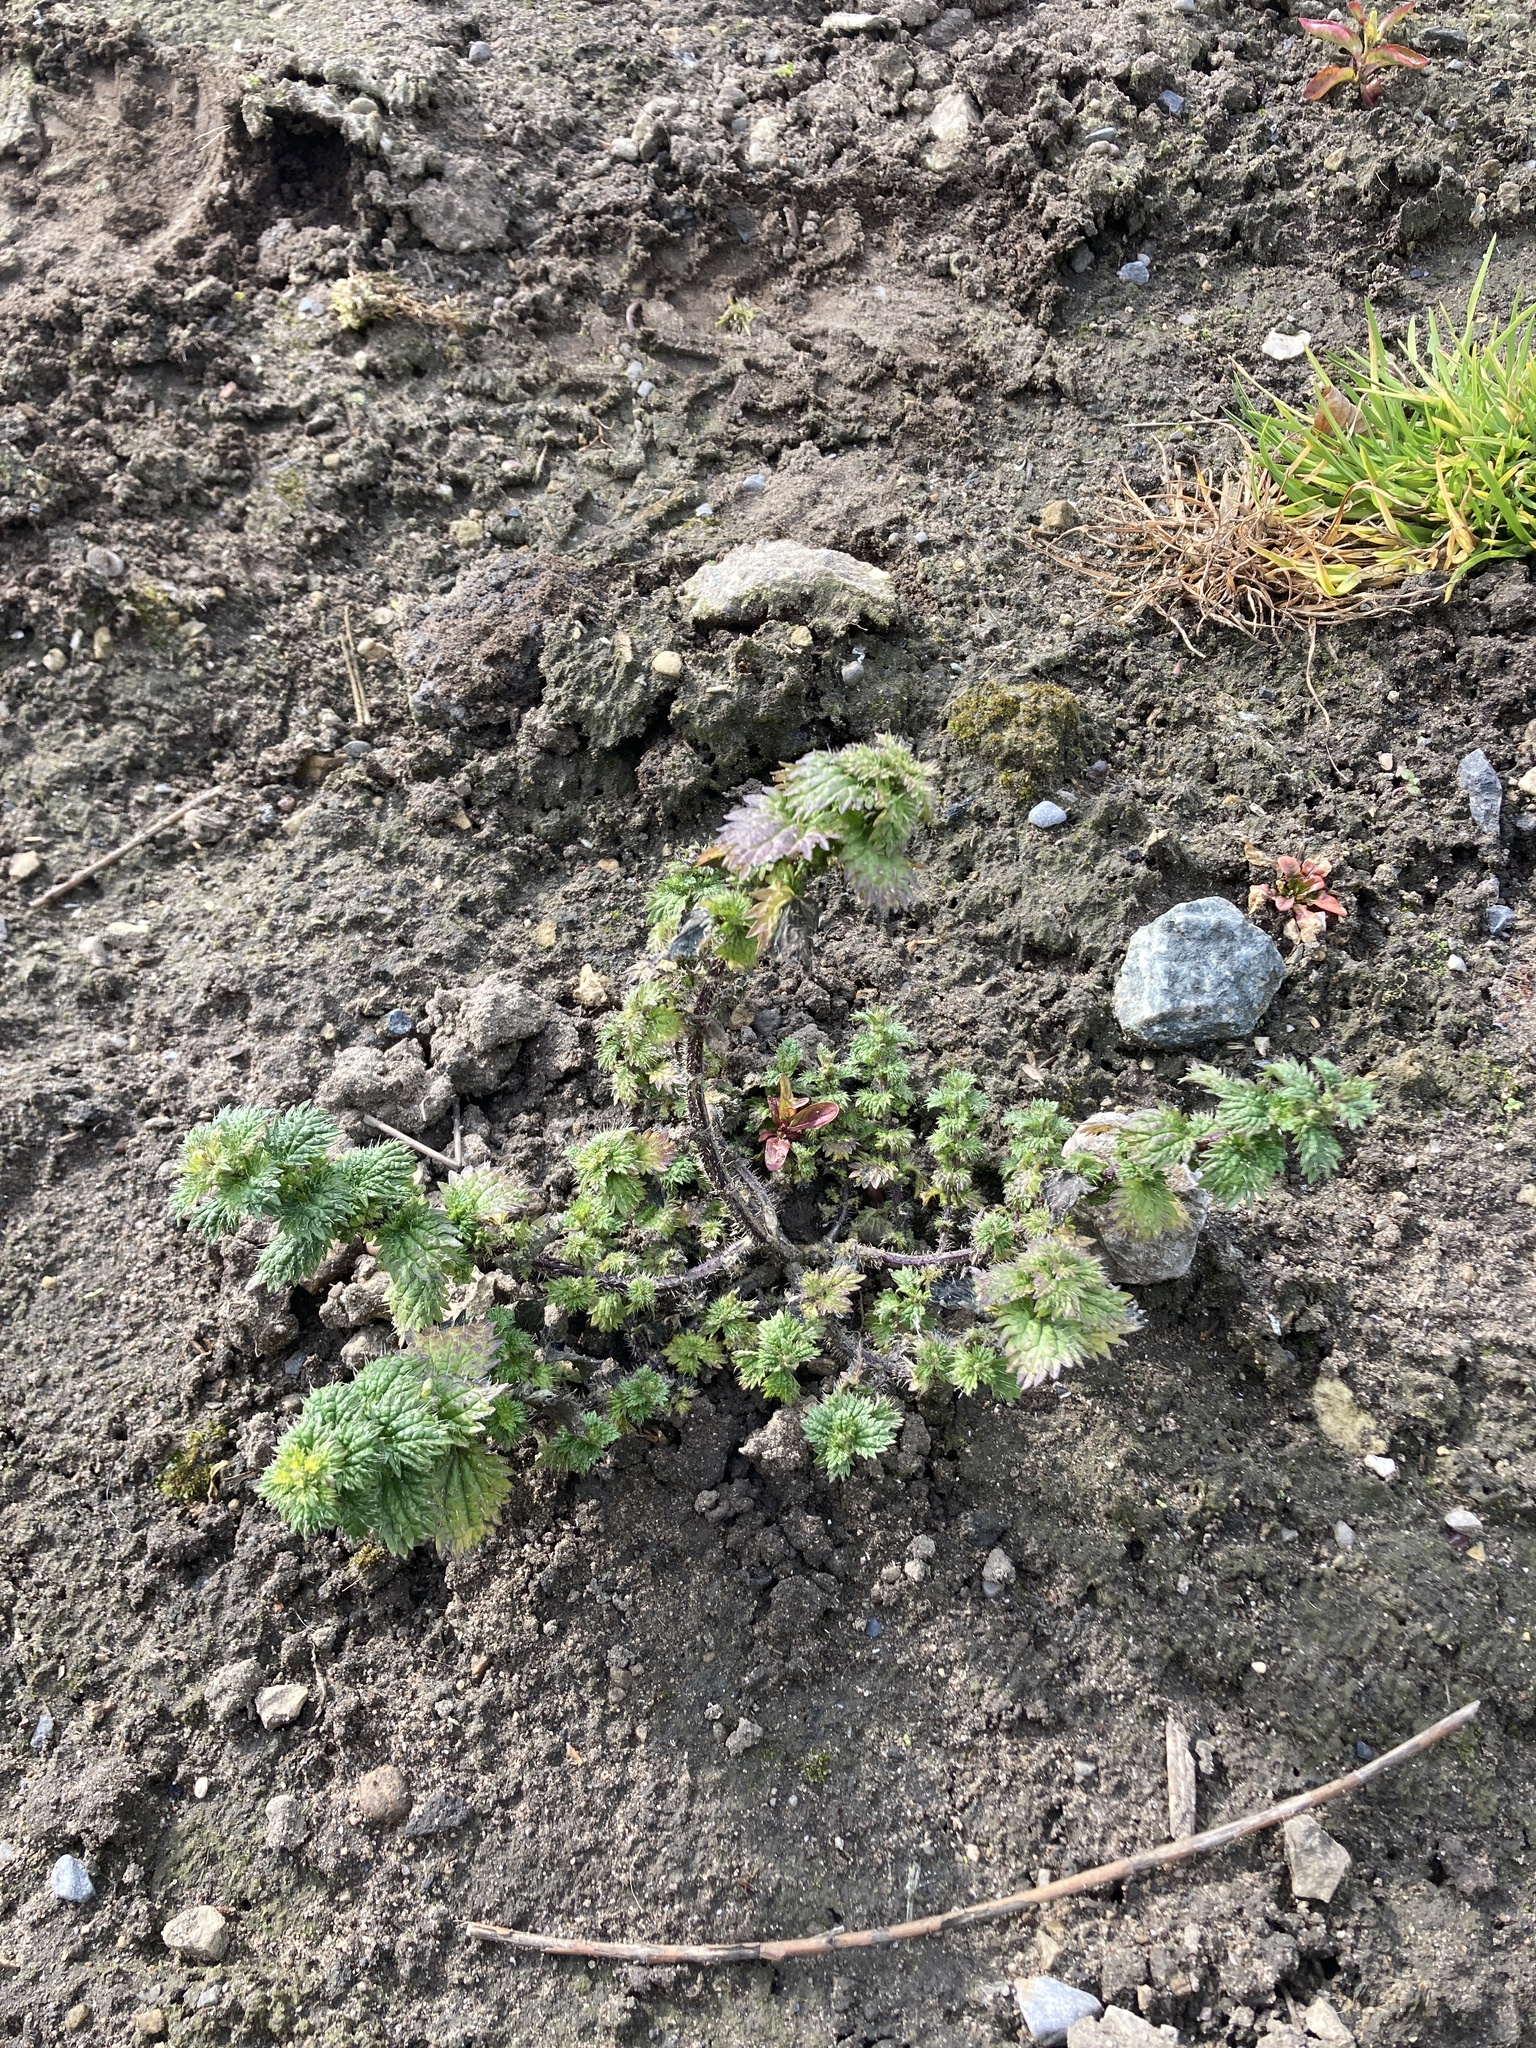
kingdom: Plantae
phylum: Tracheophyta
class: Magnoliopsida
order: Rosales
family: Urticaceae
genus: Urtica
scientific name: Urtica urens
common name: Dwarf nettle
